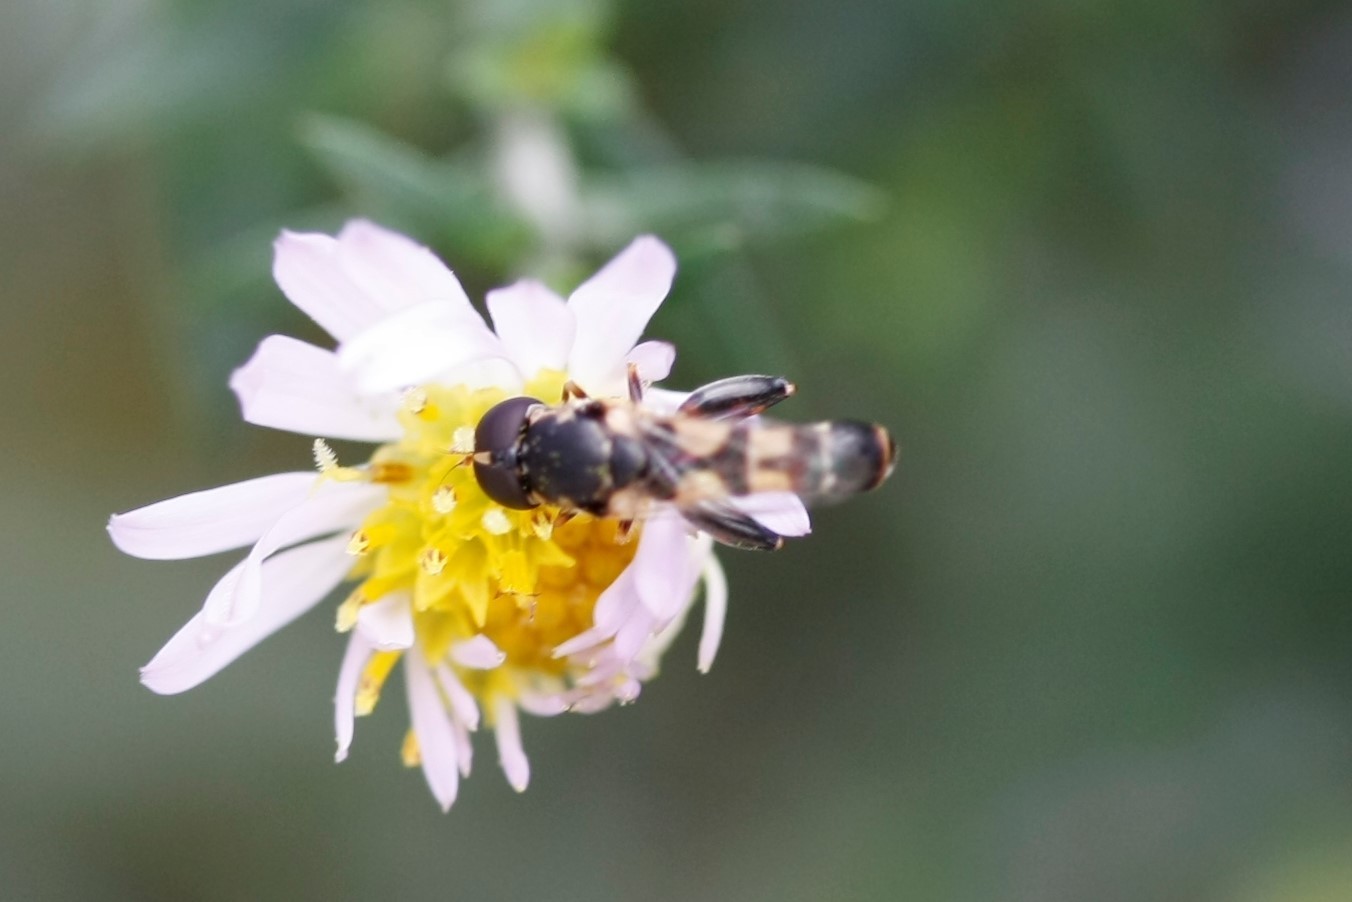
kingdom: Animalia
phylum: Arthropoda
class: Insecta
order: Diptera
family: Syrphidae
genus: Syritta
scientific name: Syritta pipiens
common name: Hover fly
